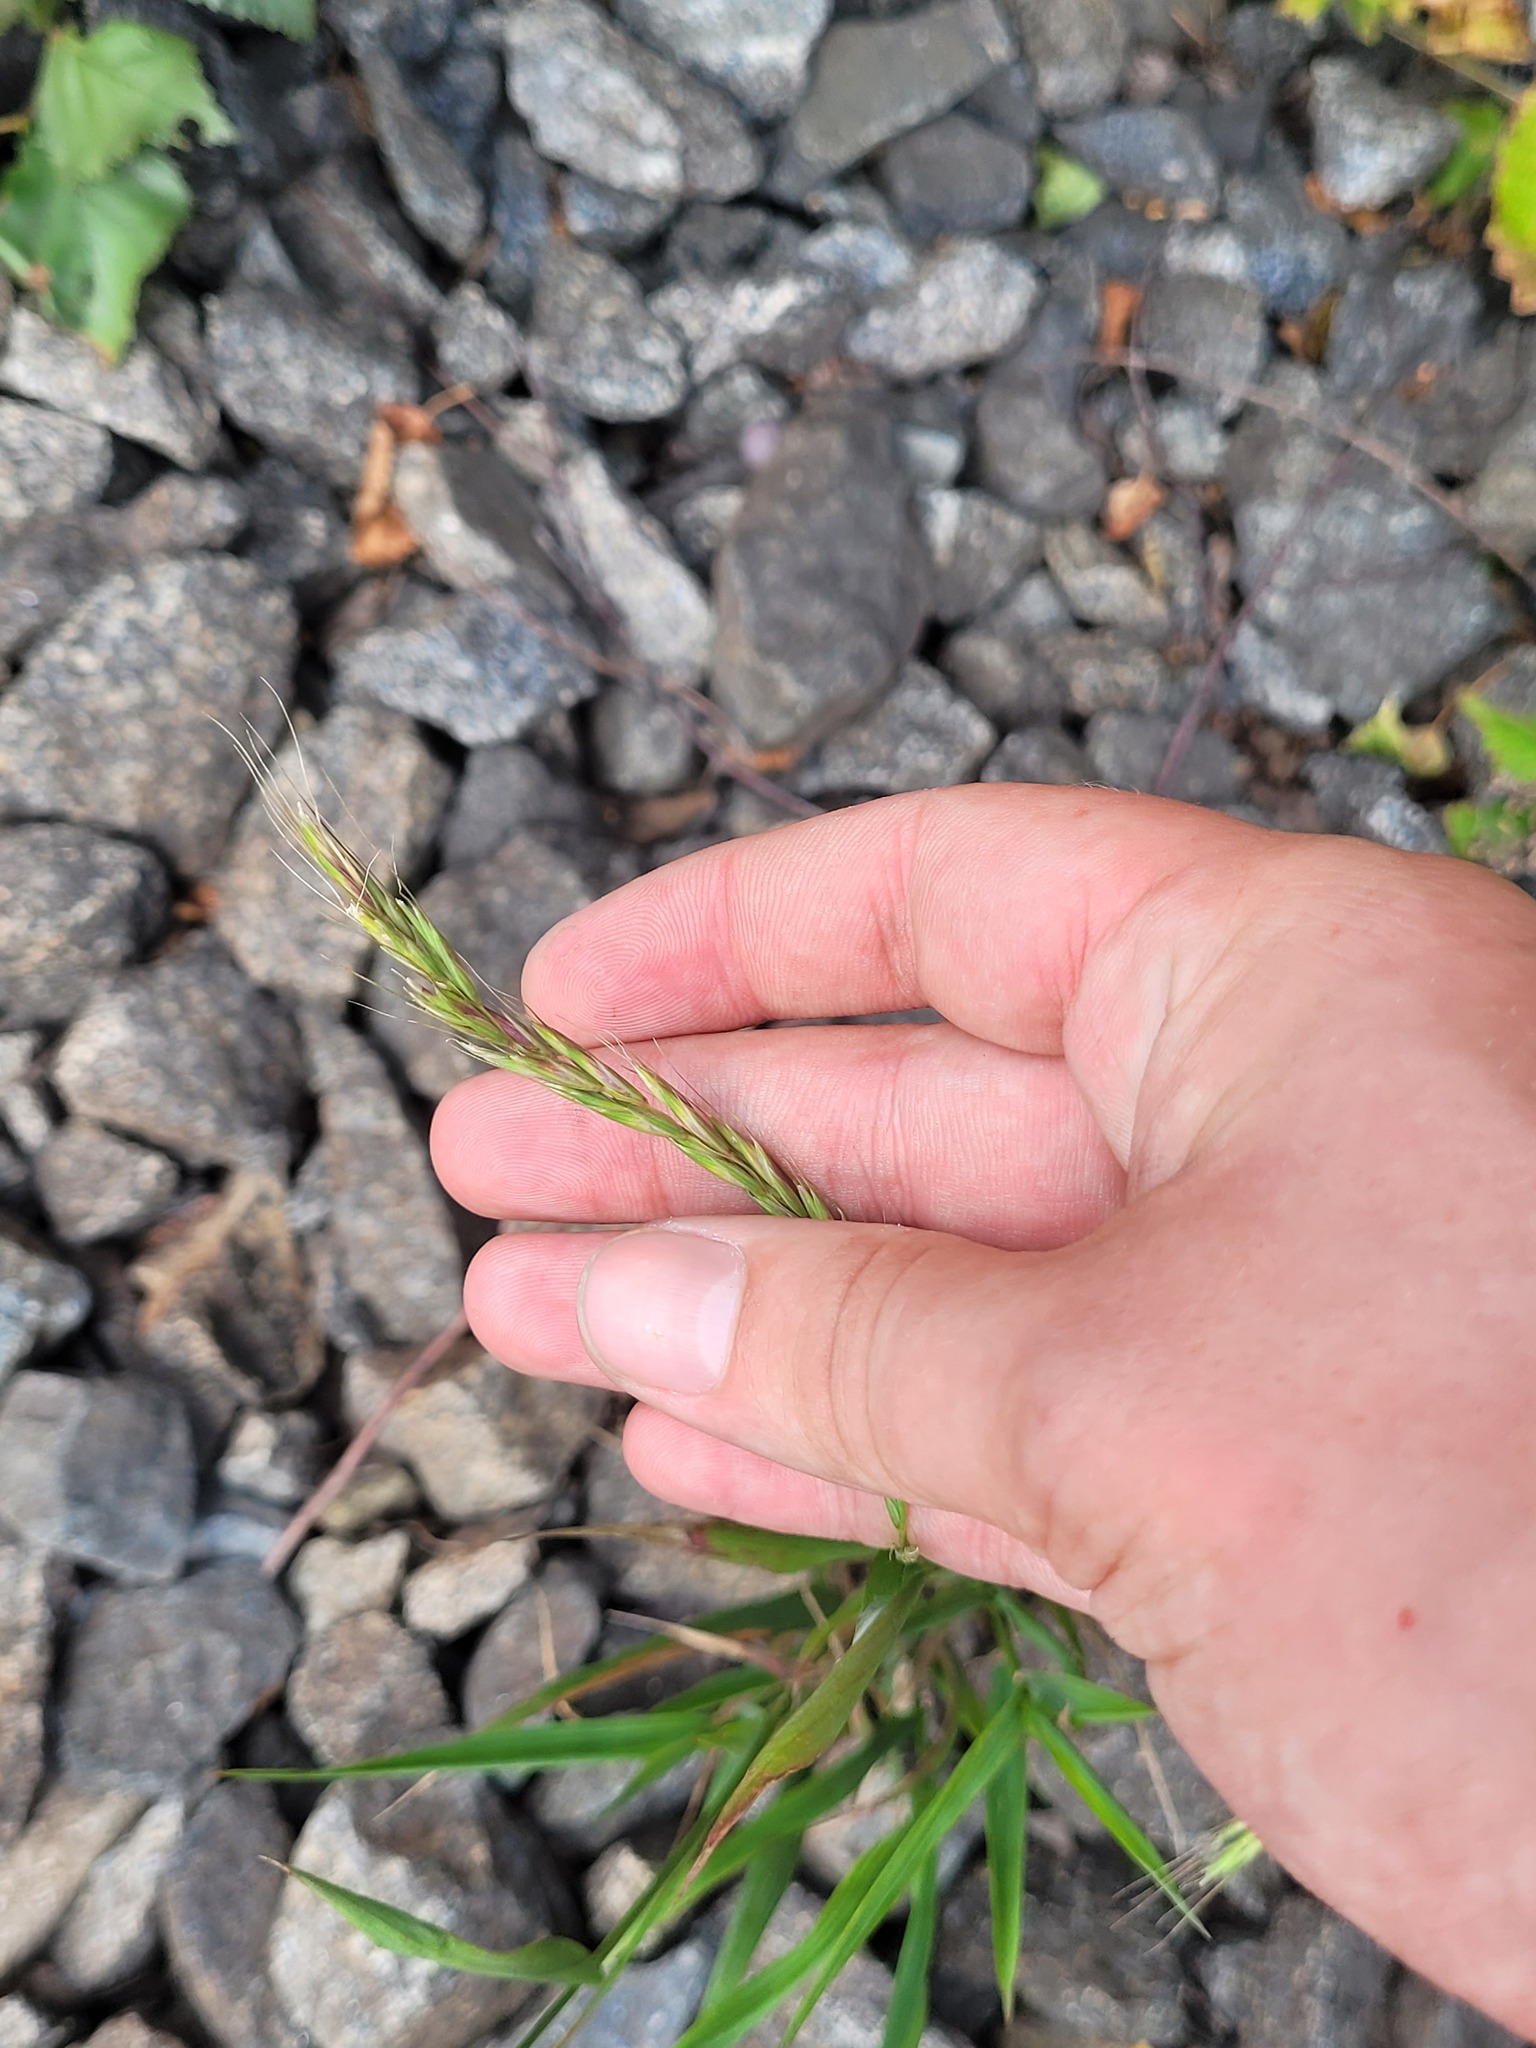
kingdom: Plantae
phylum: Tracheophyta
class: Liliopsida
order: Poales
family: Poaceae
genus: Elymus
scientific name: Elymus caninus
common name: Bearded couch
